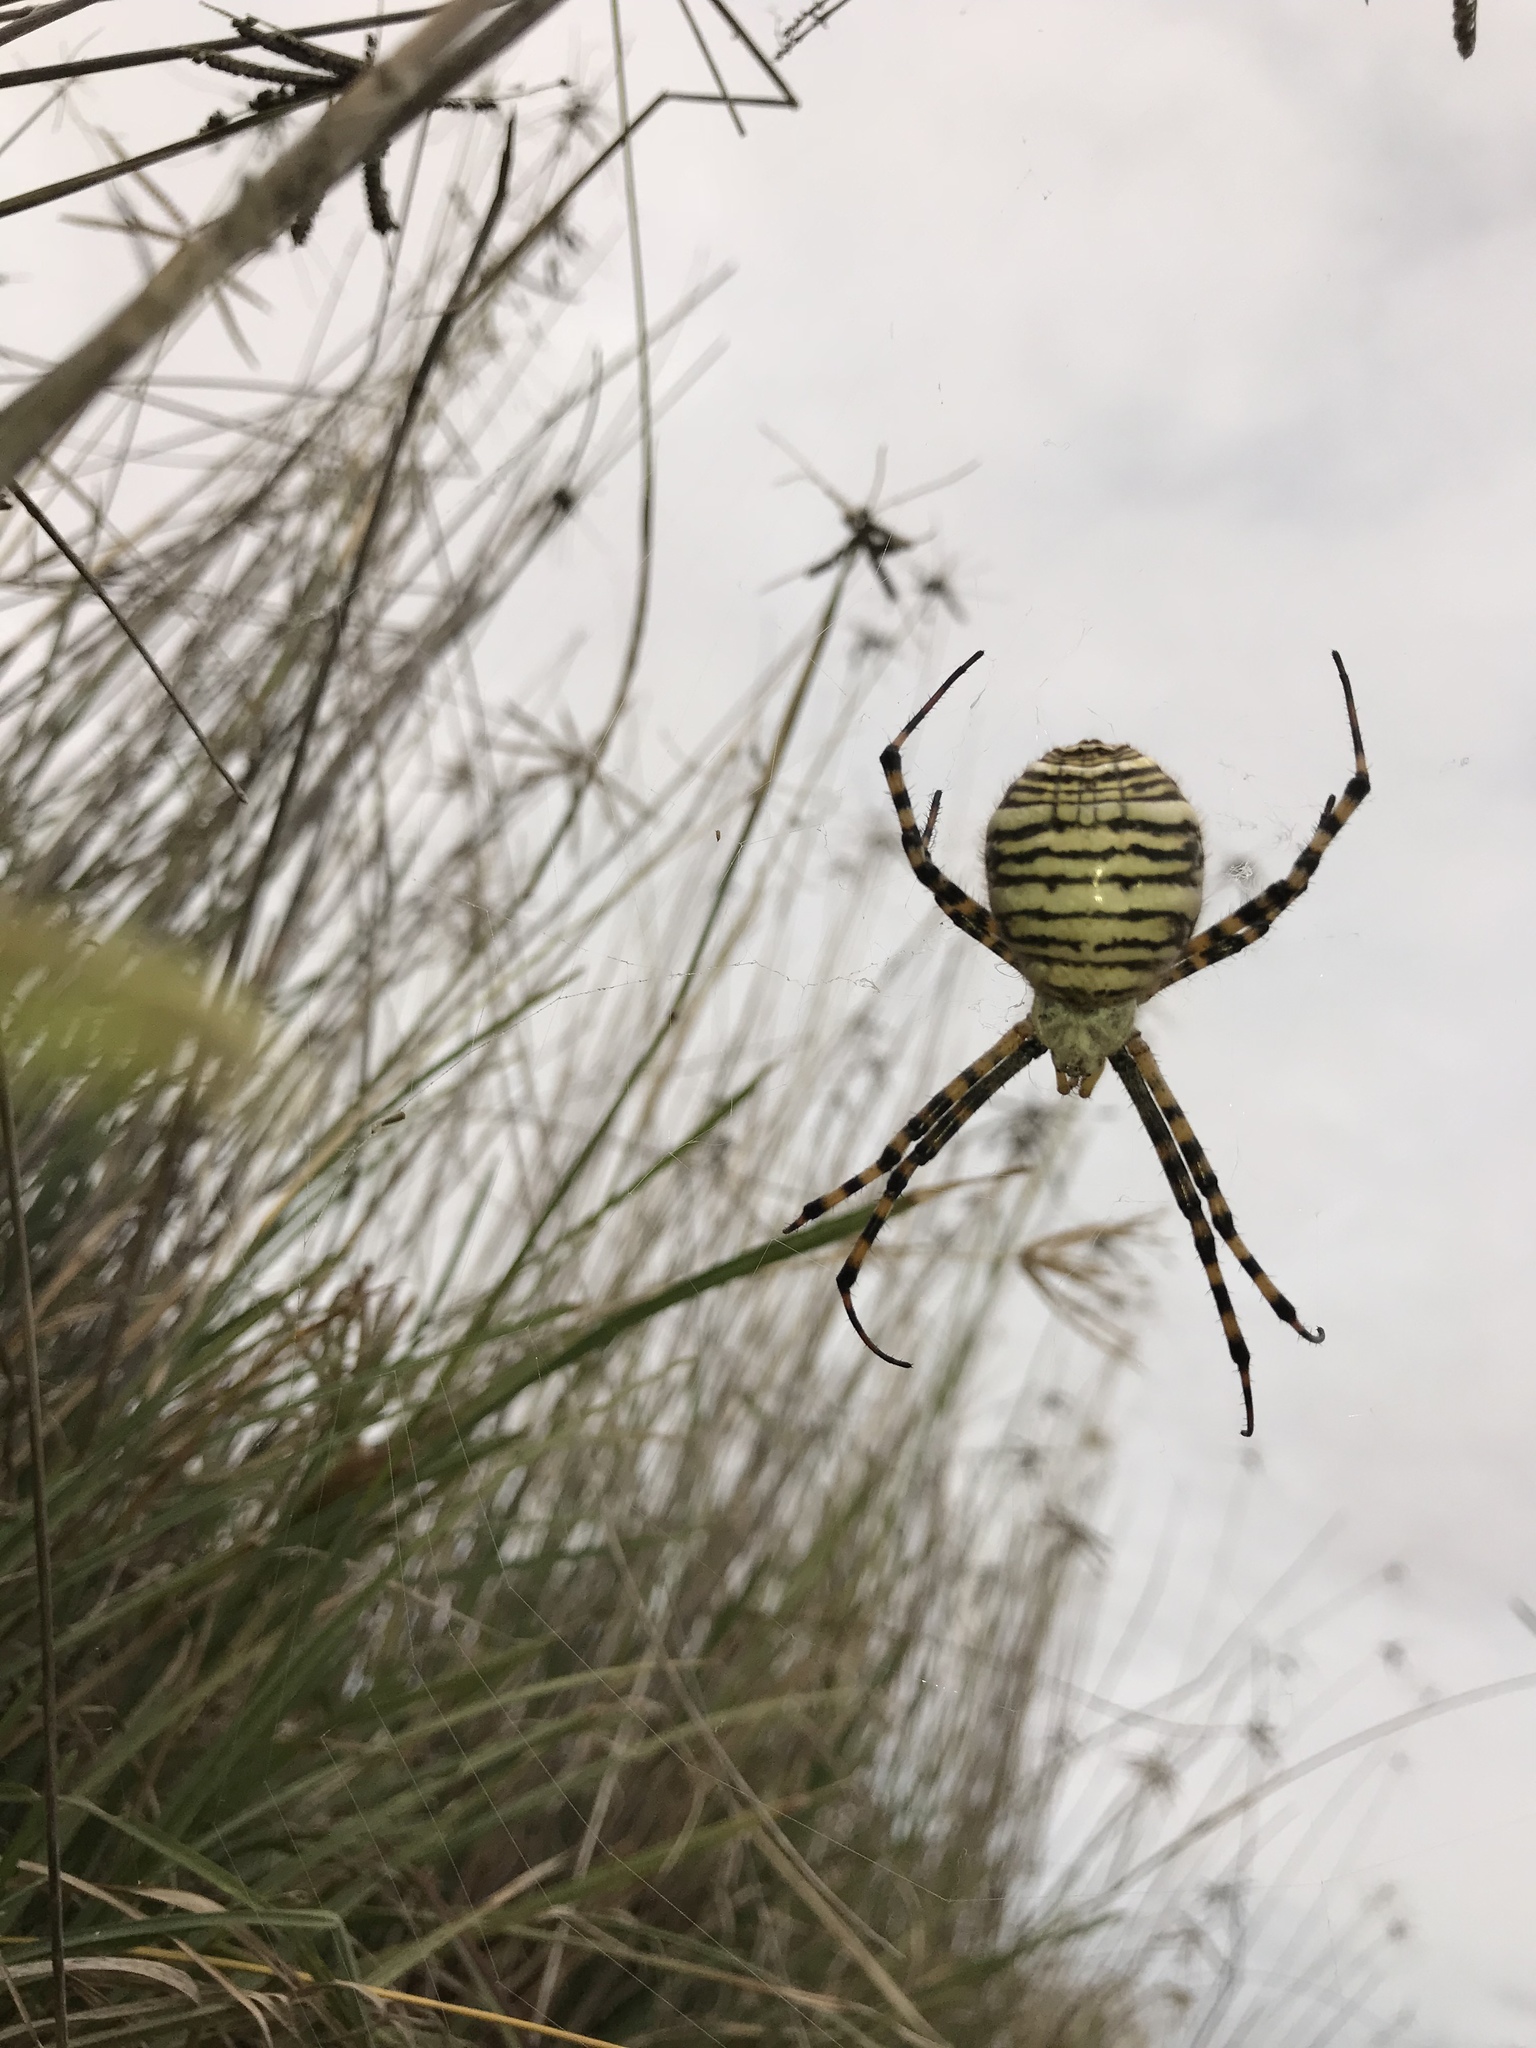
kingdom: Animalia
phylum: Arthropoda
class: Arachnida
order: Araneae
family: Araneidae
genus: Argiope
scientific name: Argiope trifasciata
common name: Banded garden spider
